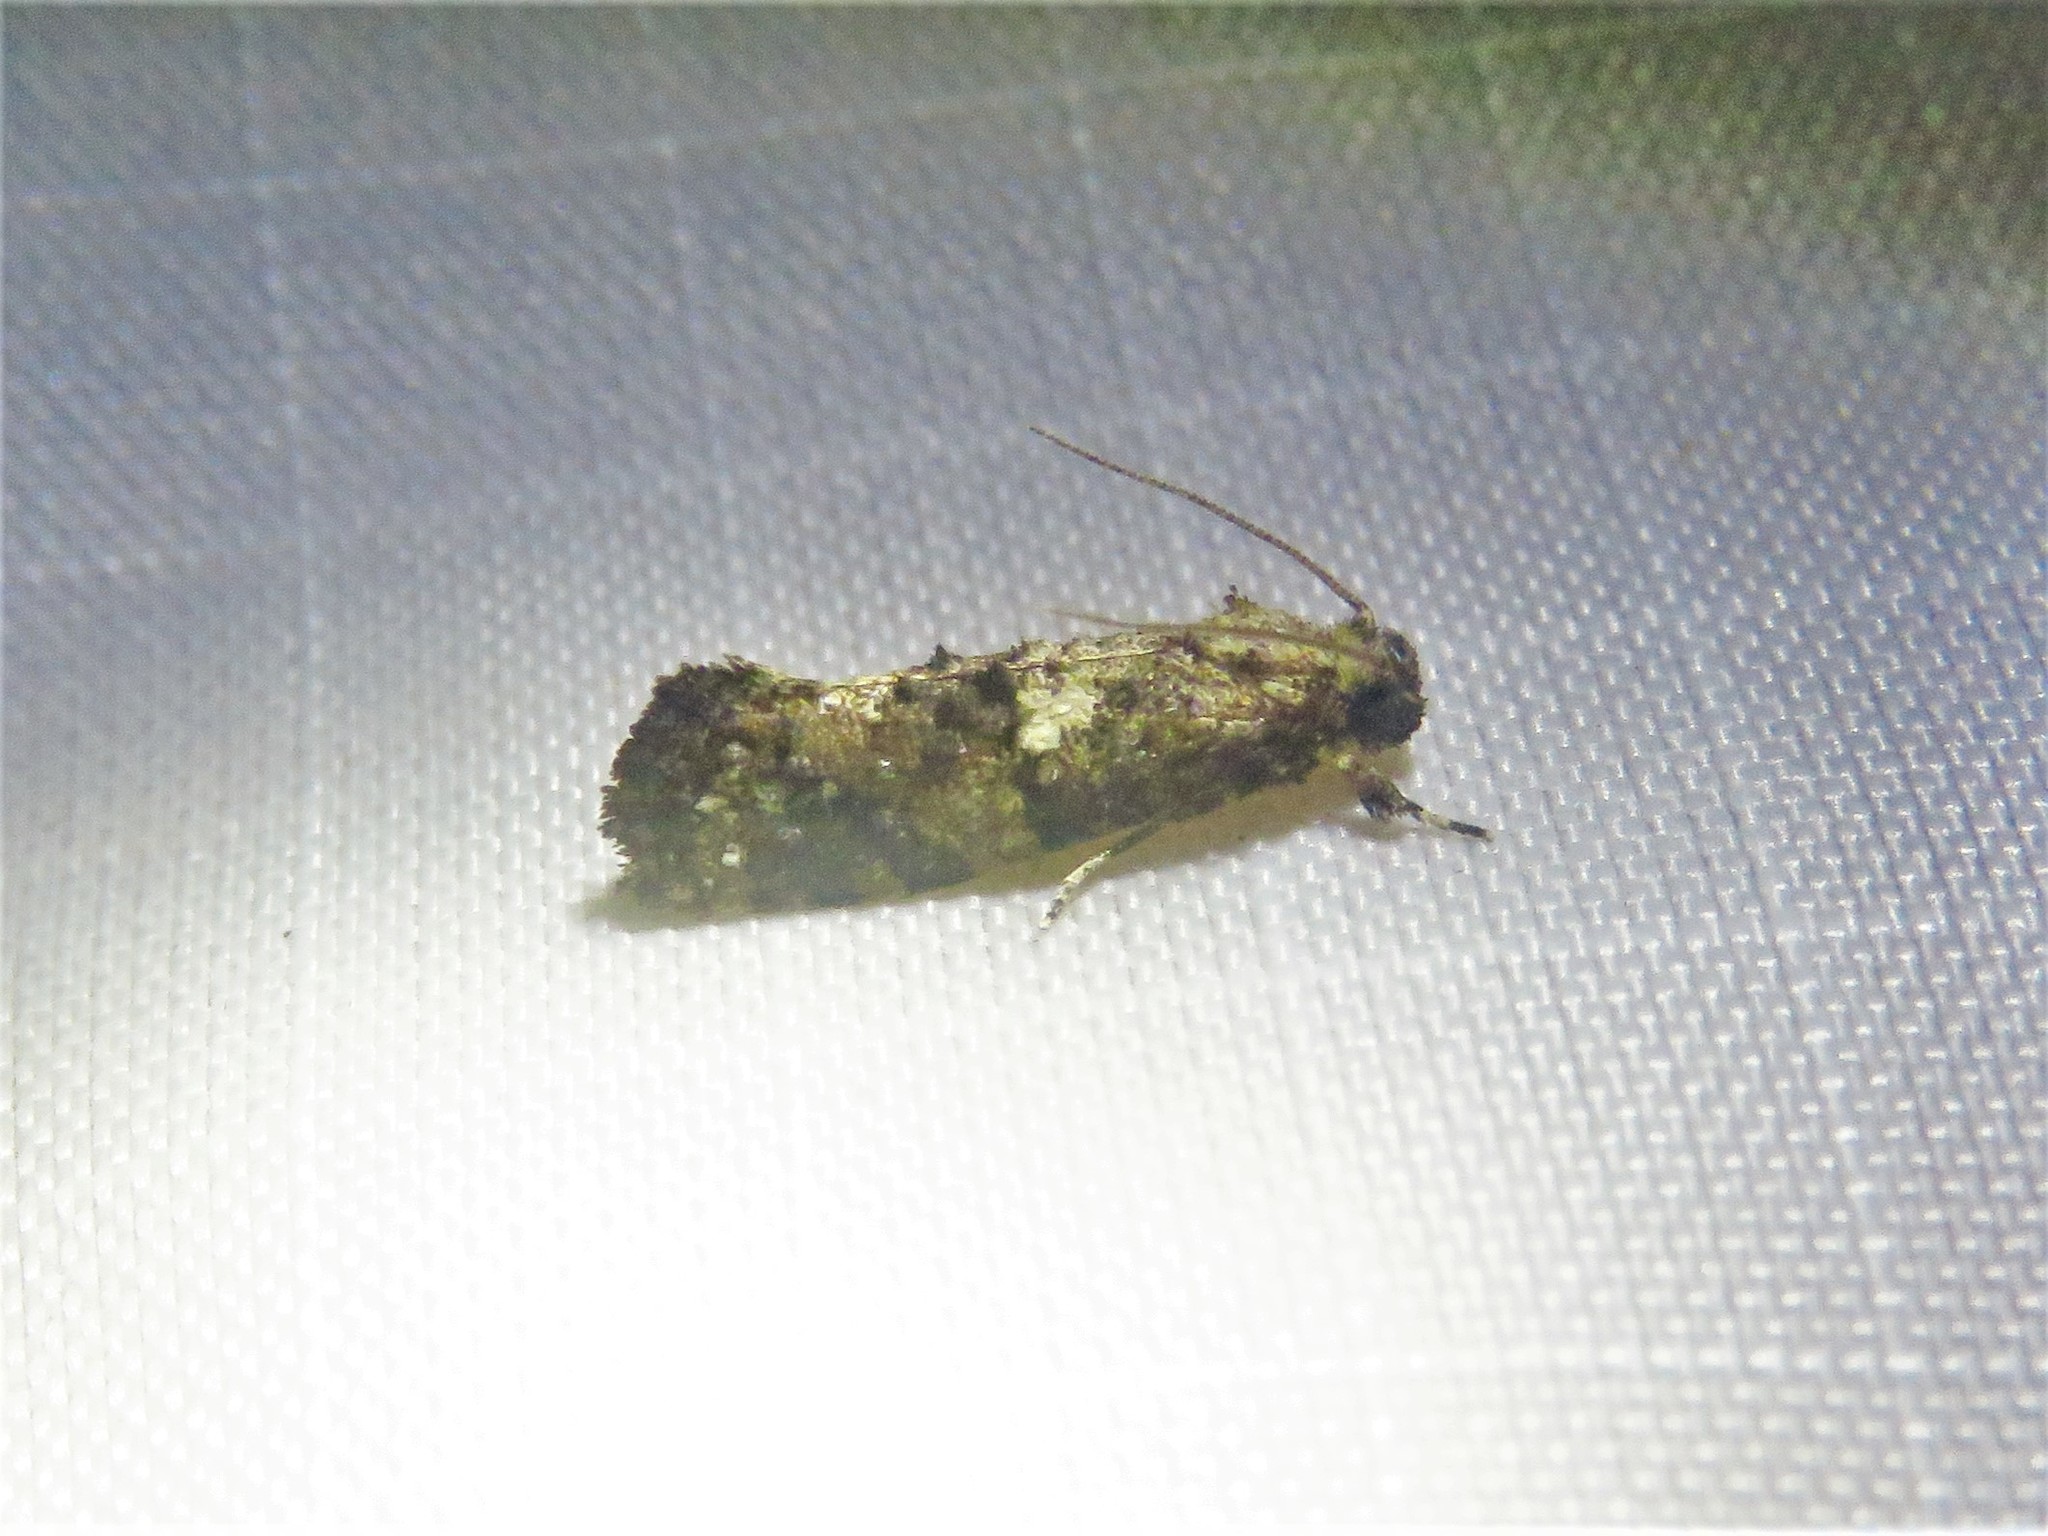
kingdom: Animalia
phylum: Arthropoda
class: Insecta
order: Lepidoptera
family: Tineidae
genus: Acrolophus
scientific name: Acrolophus cressoni
